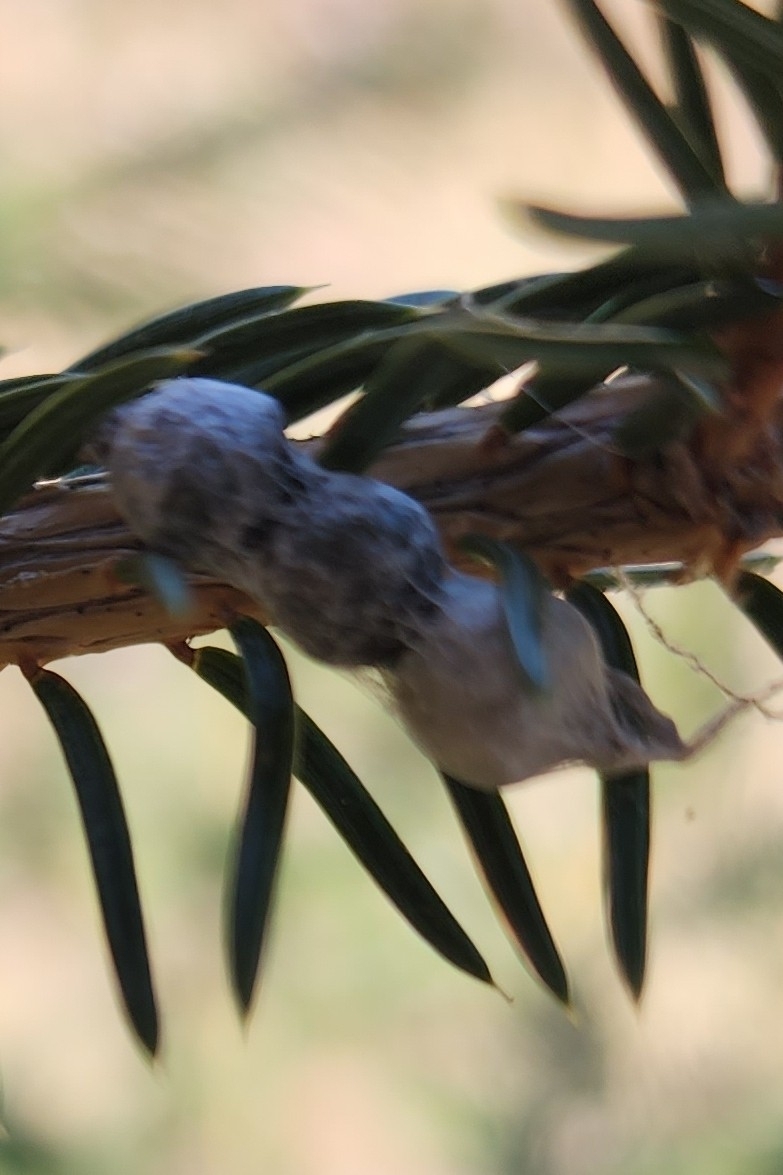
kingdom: Animalia
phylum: Arthropoda
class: Arachnida
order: Araneae
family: Araneidae
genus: Mecynogea
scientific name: Mecynogea lemniscata
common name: Orb weavers
